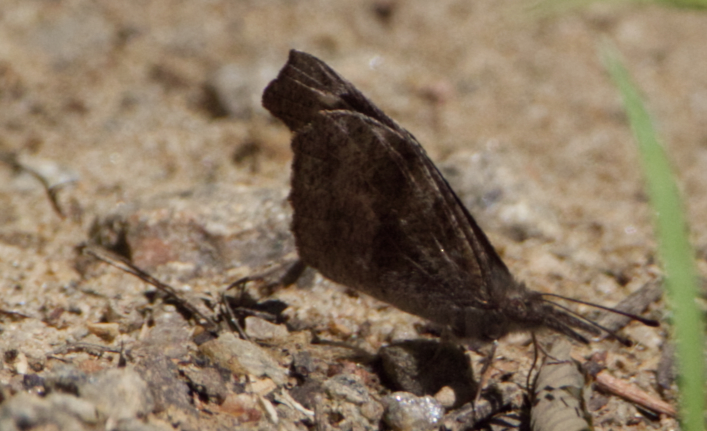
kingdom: Animalia
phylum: Arthropoda
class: Insecta
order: Lepidoptera
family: Nymphalidae
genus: Libytheana
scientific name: Libytheana carinenta
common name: American snout
